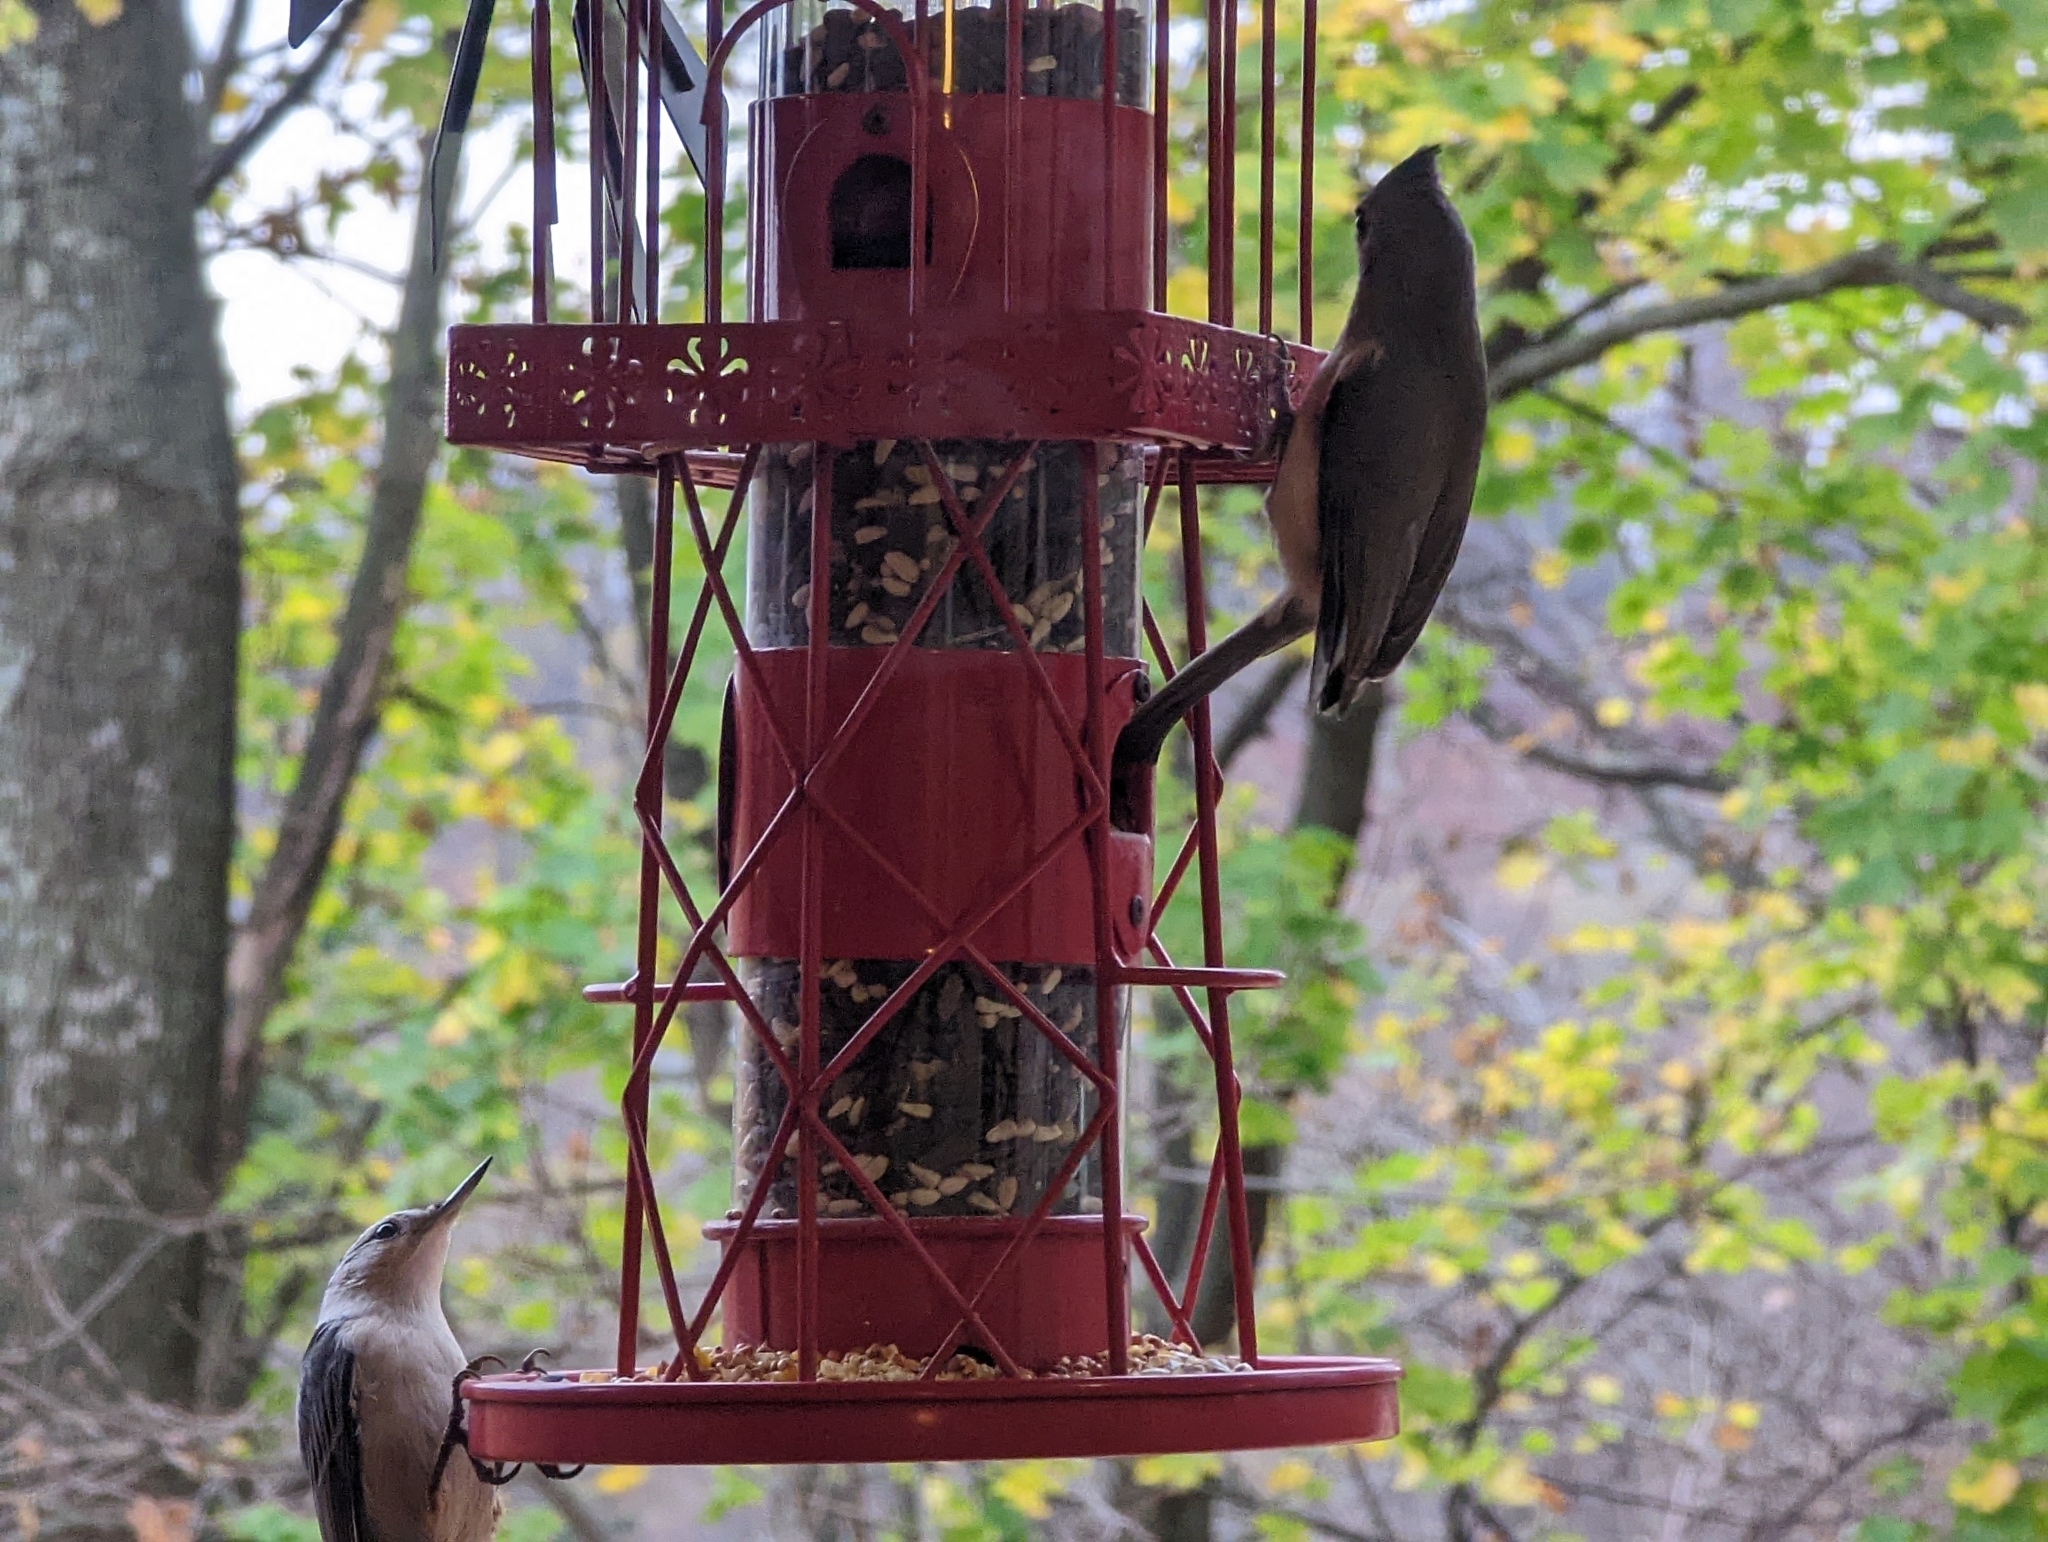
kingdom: Animalia
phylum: Chordata
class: Aves
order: Passeriformes
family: Paridae
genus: Baeolophus
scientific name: Baeolophus bicolor
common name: Tufted titmouse
